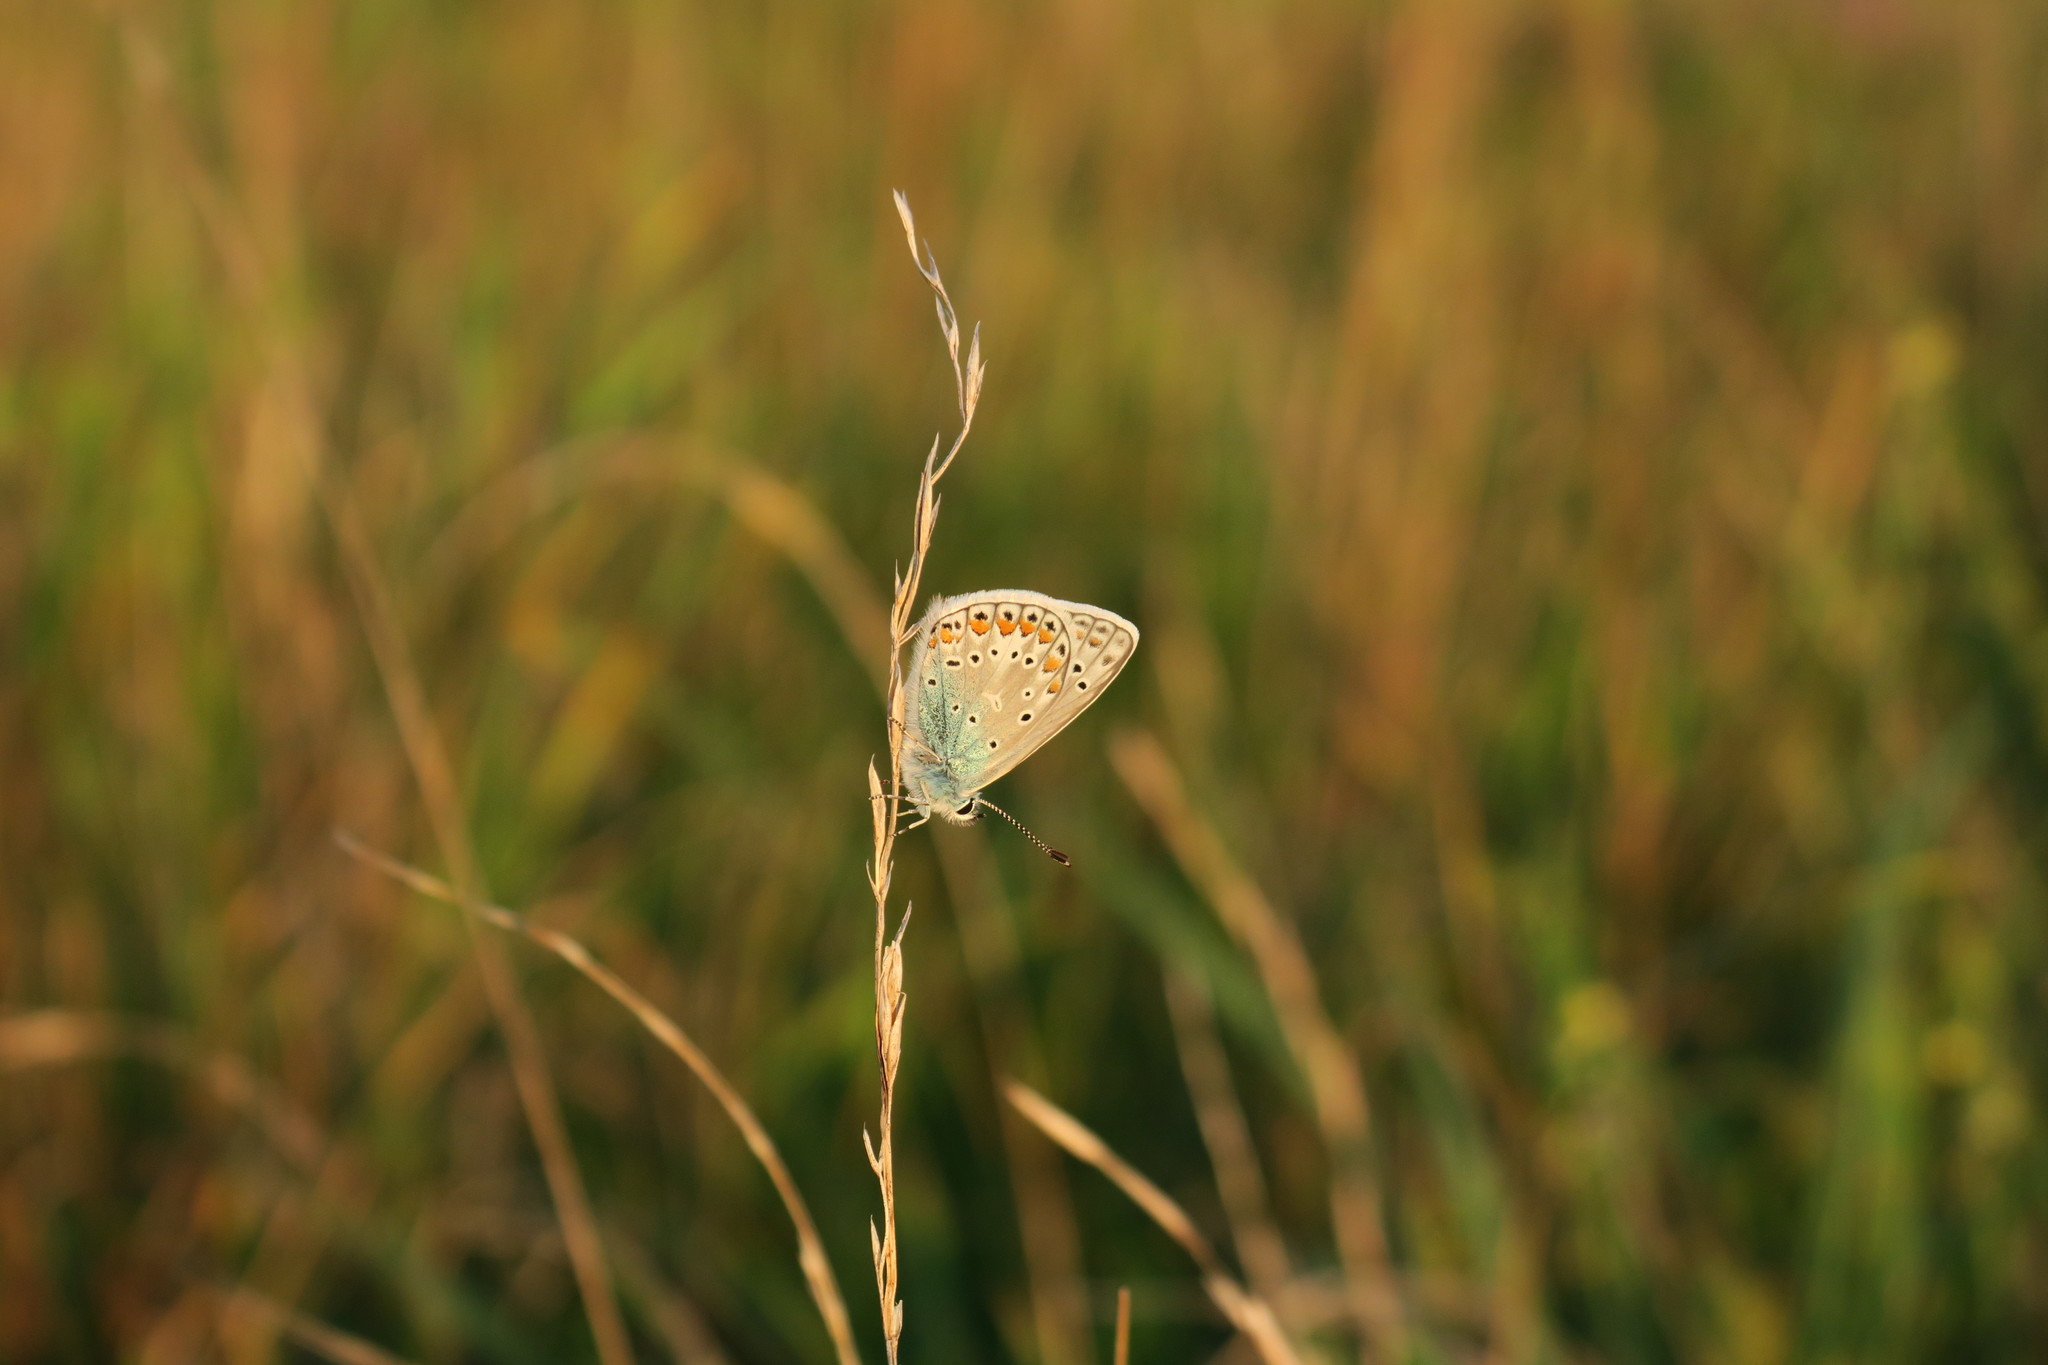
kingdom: Animalia
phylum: Arthropoda
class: Insecta
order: Lepidoptera
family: Lycaenidae
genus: Polyommatus
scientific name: Polyommatus icarus
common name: Common blue
